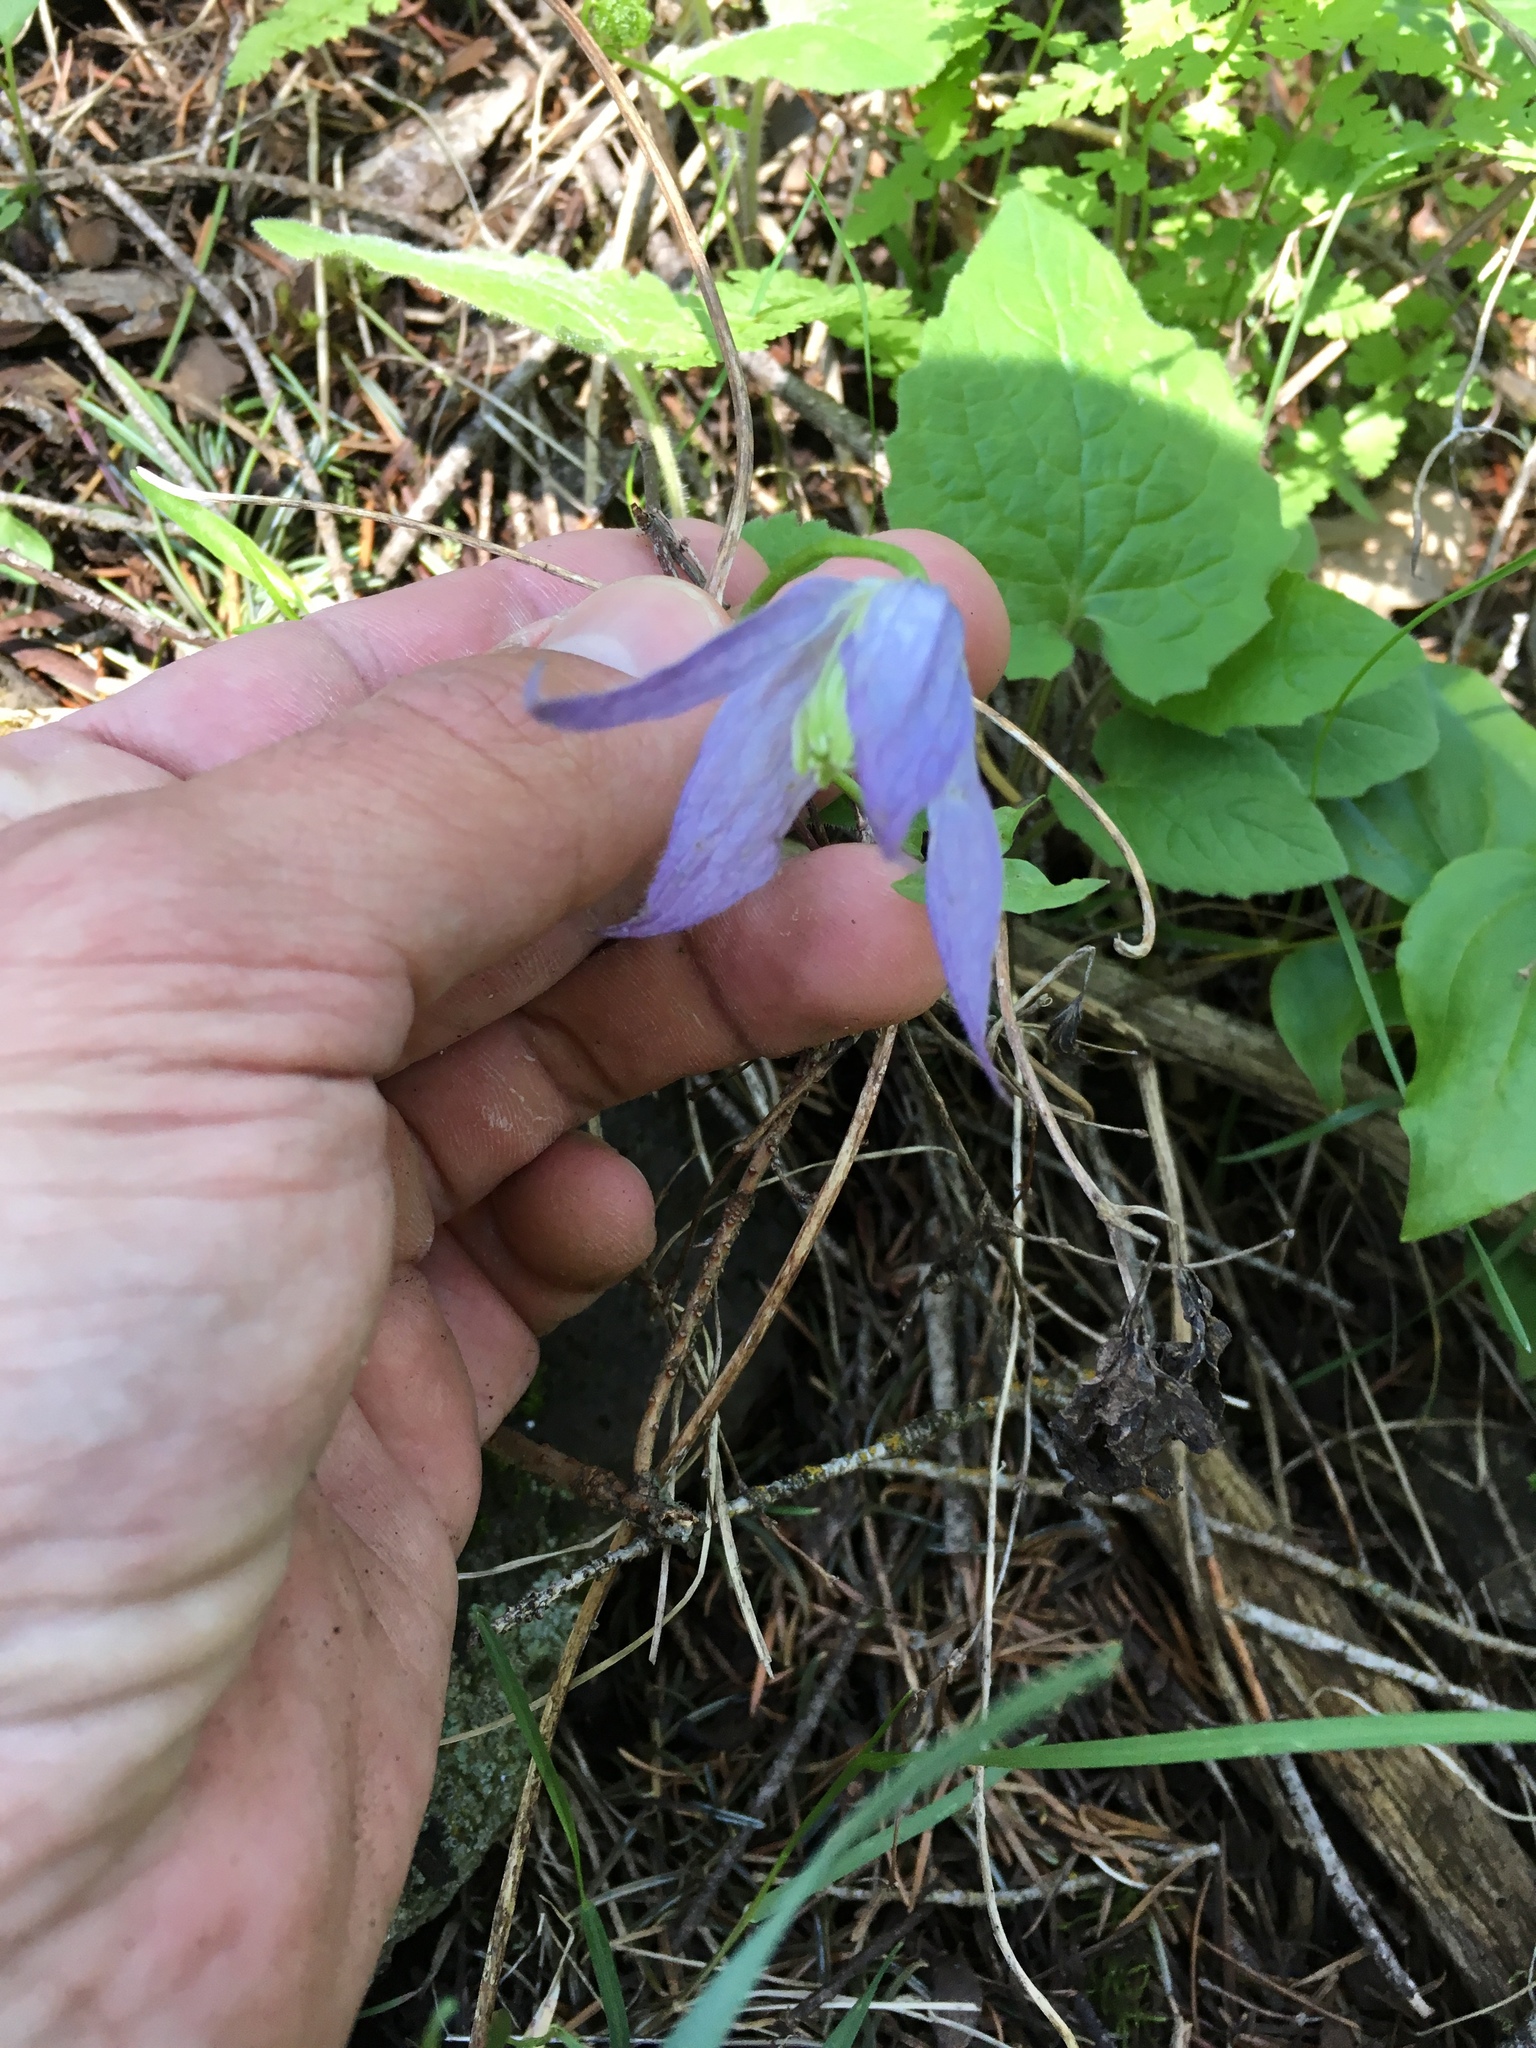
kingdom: Plantae
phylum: Tracheophyta
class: Magnoliopsida
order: Ranunculales
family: Ranunculaceae
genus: Clematis
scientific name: Clematis occidentalis
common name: Purple clematis
